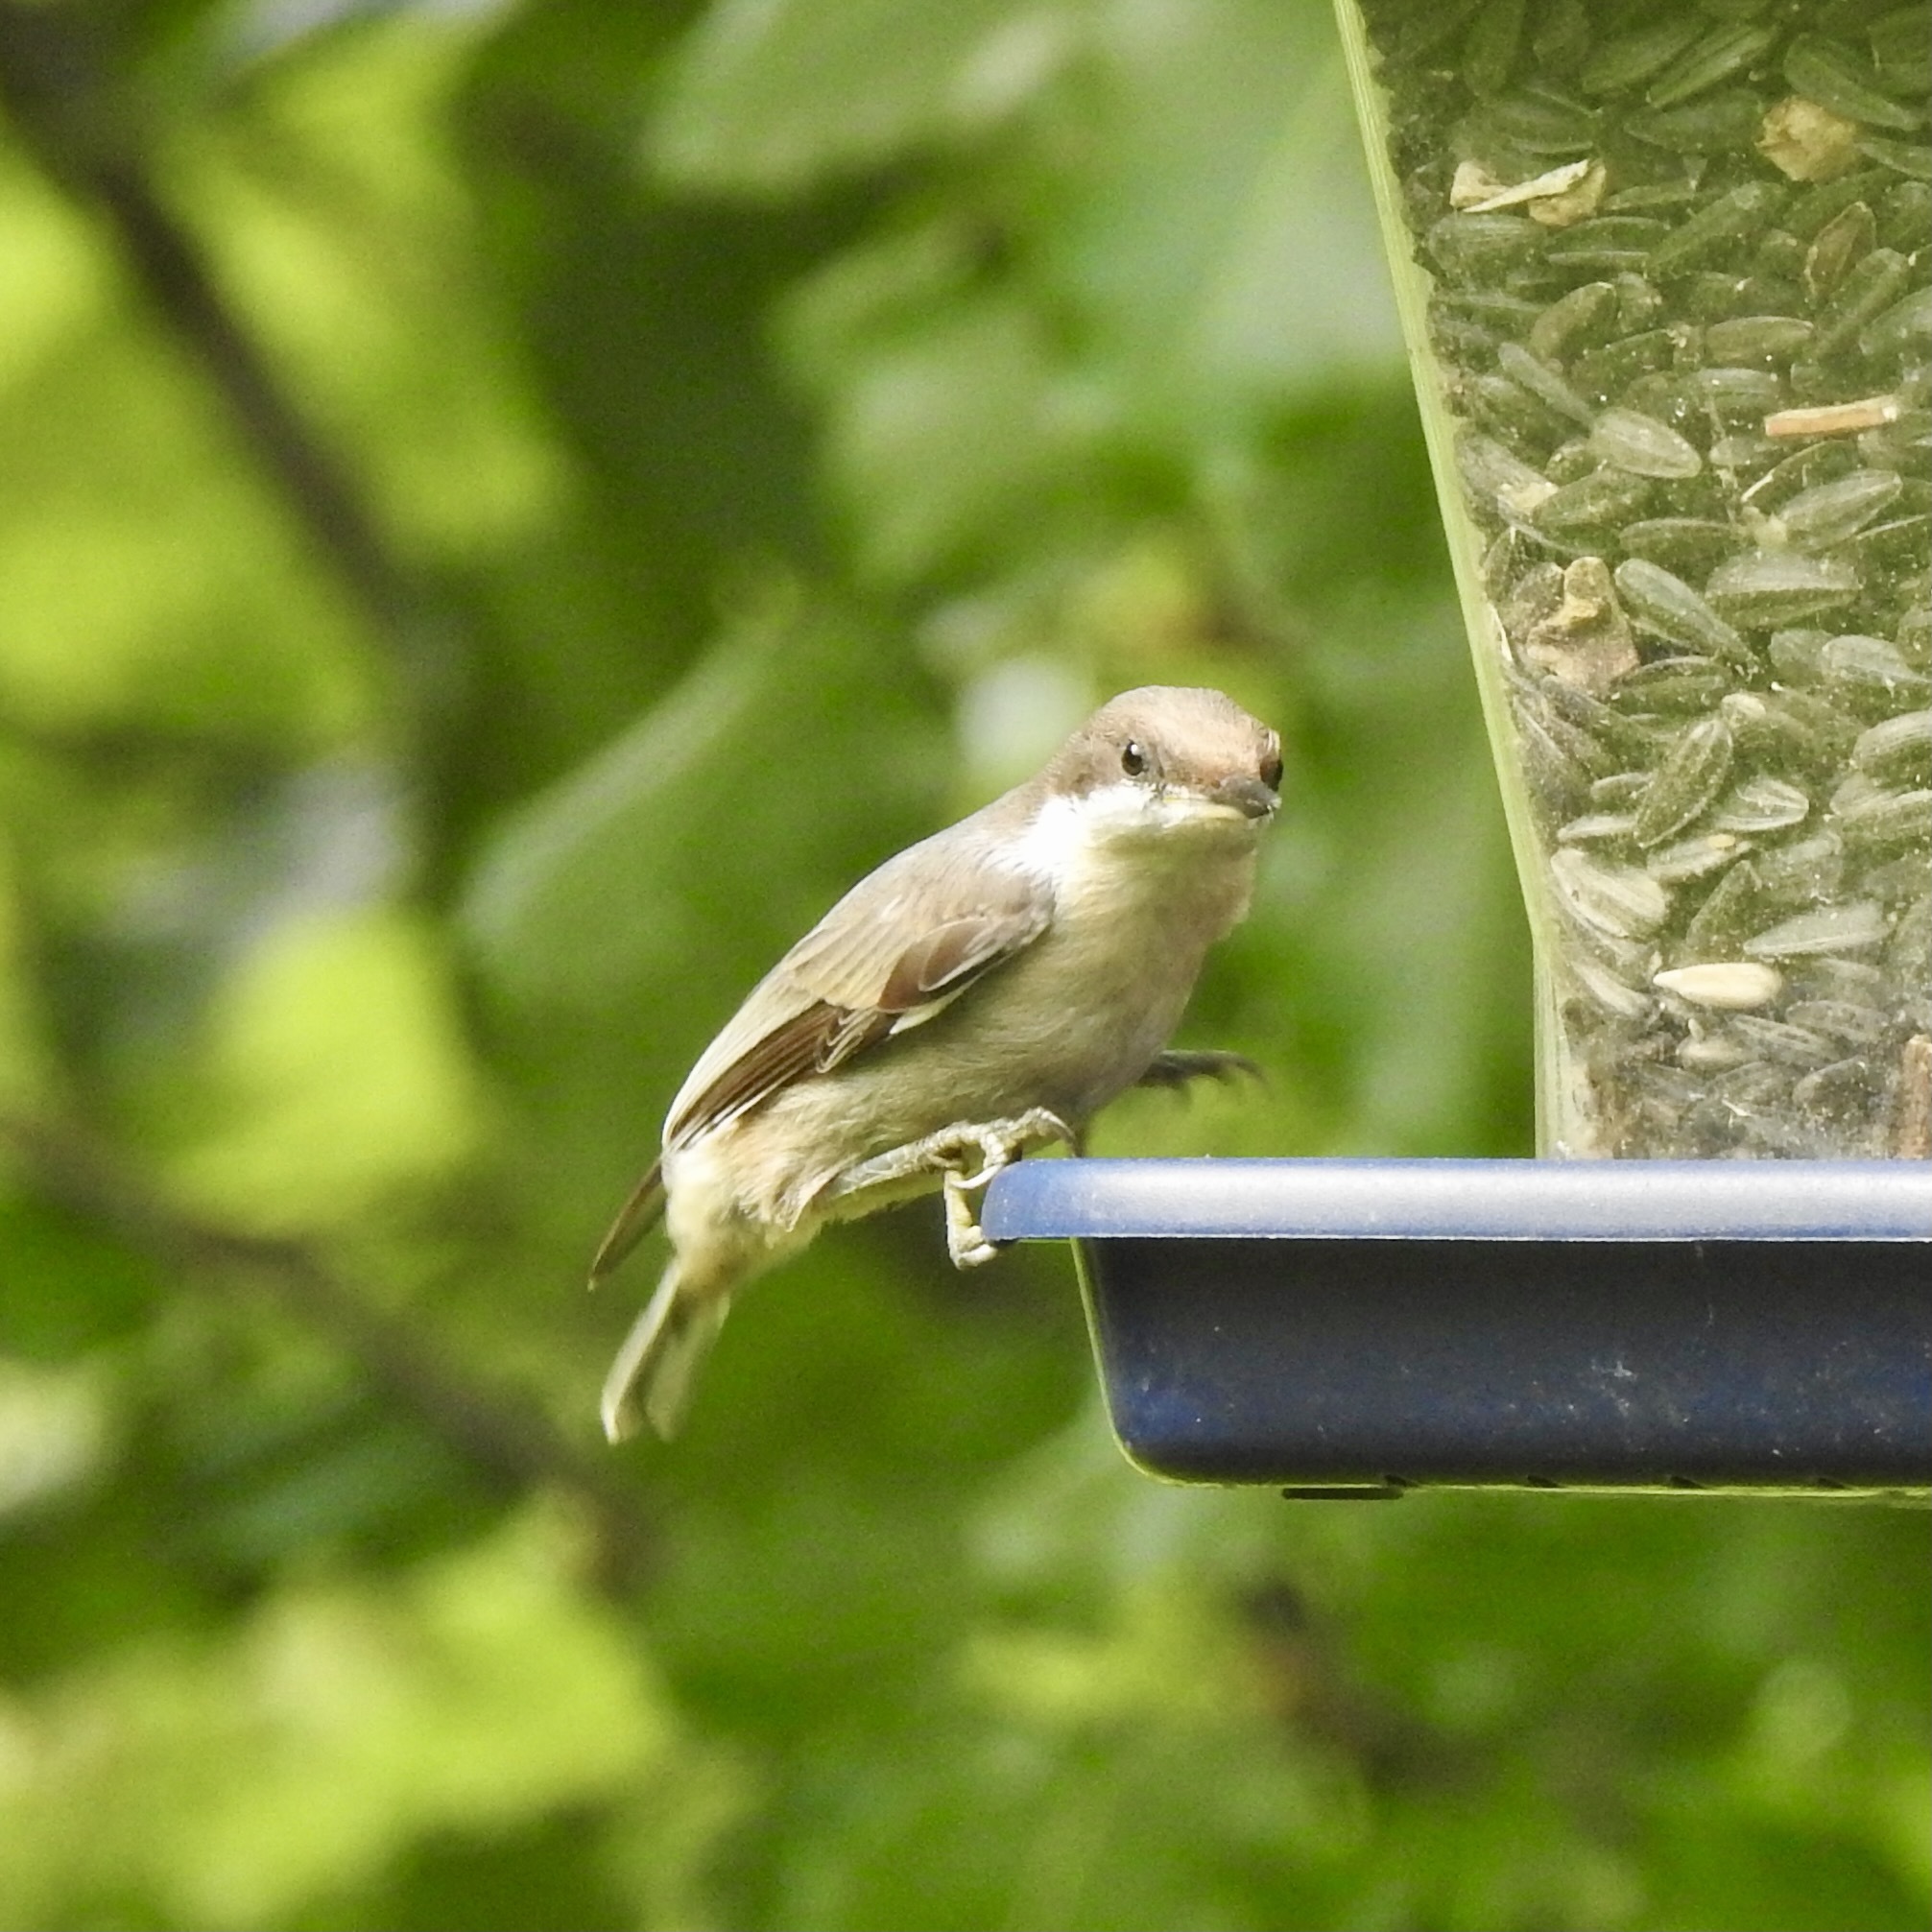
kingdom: Animalia
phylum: Chordata
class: Aves
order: Passeriformes
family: Sittidae
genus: Sitta
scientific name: Sitta pusilla
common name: Brown-headed nuthatch
